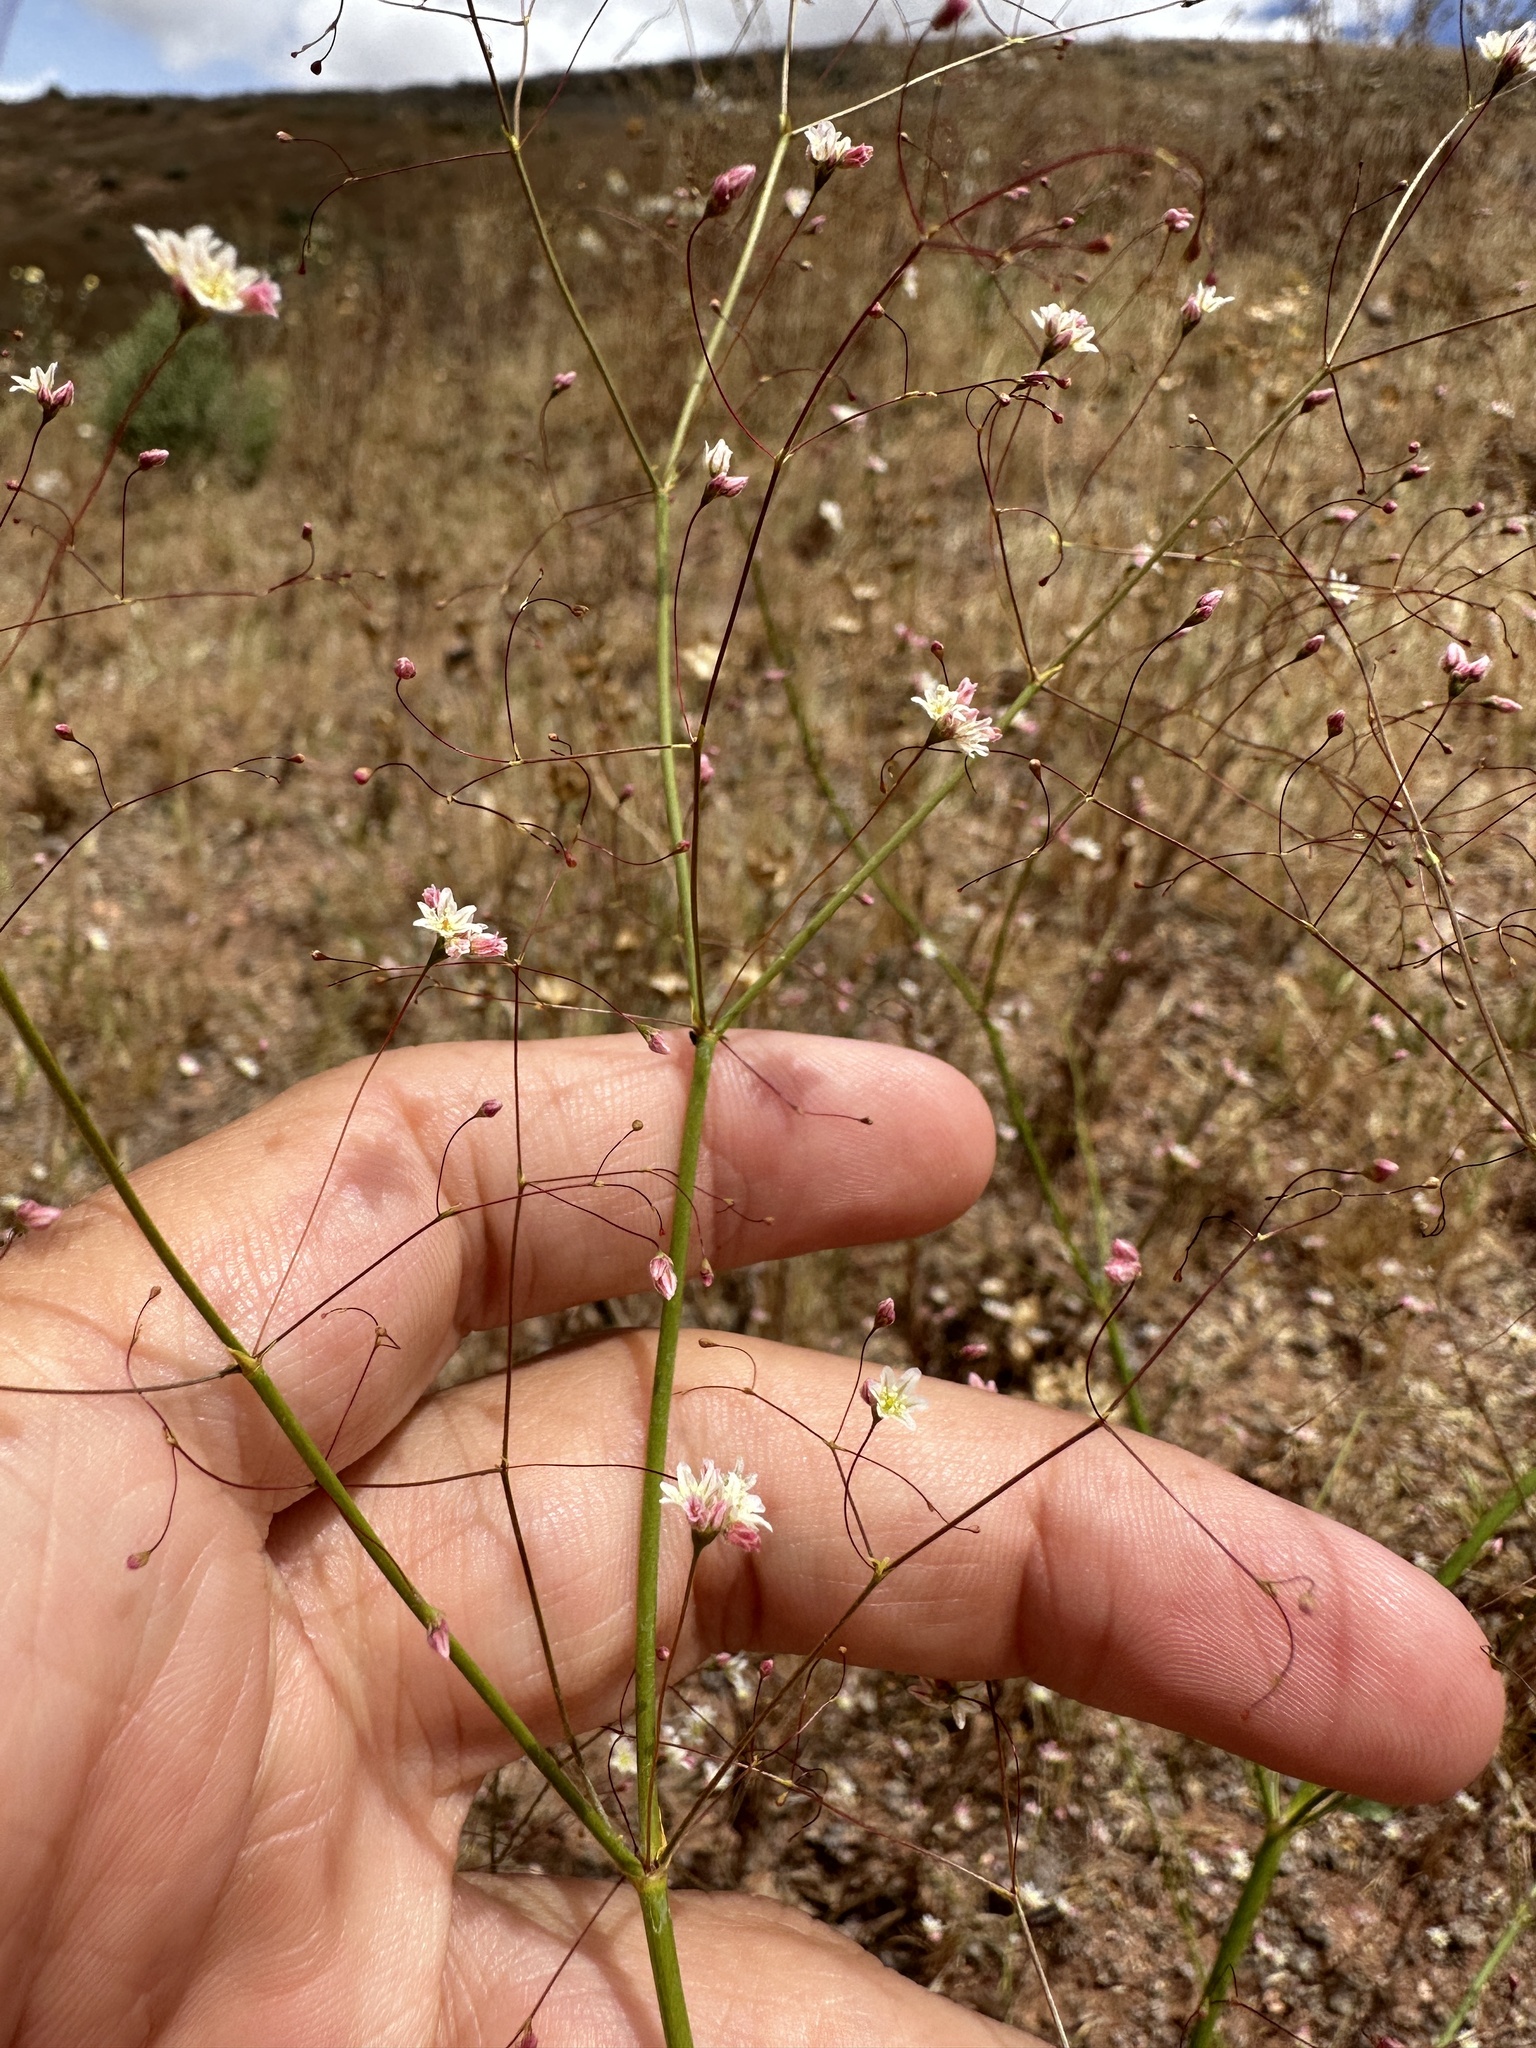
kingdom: Plantae
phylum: Tracheophyta
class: Magnoliopsida
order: Caryophyllales
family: Polygonaceae
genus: Eriogonum
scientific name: Eriogonum ordii
